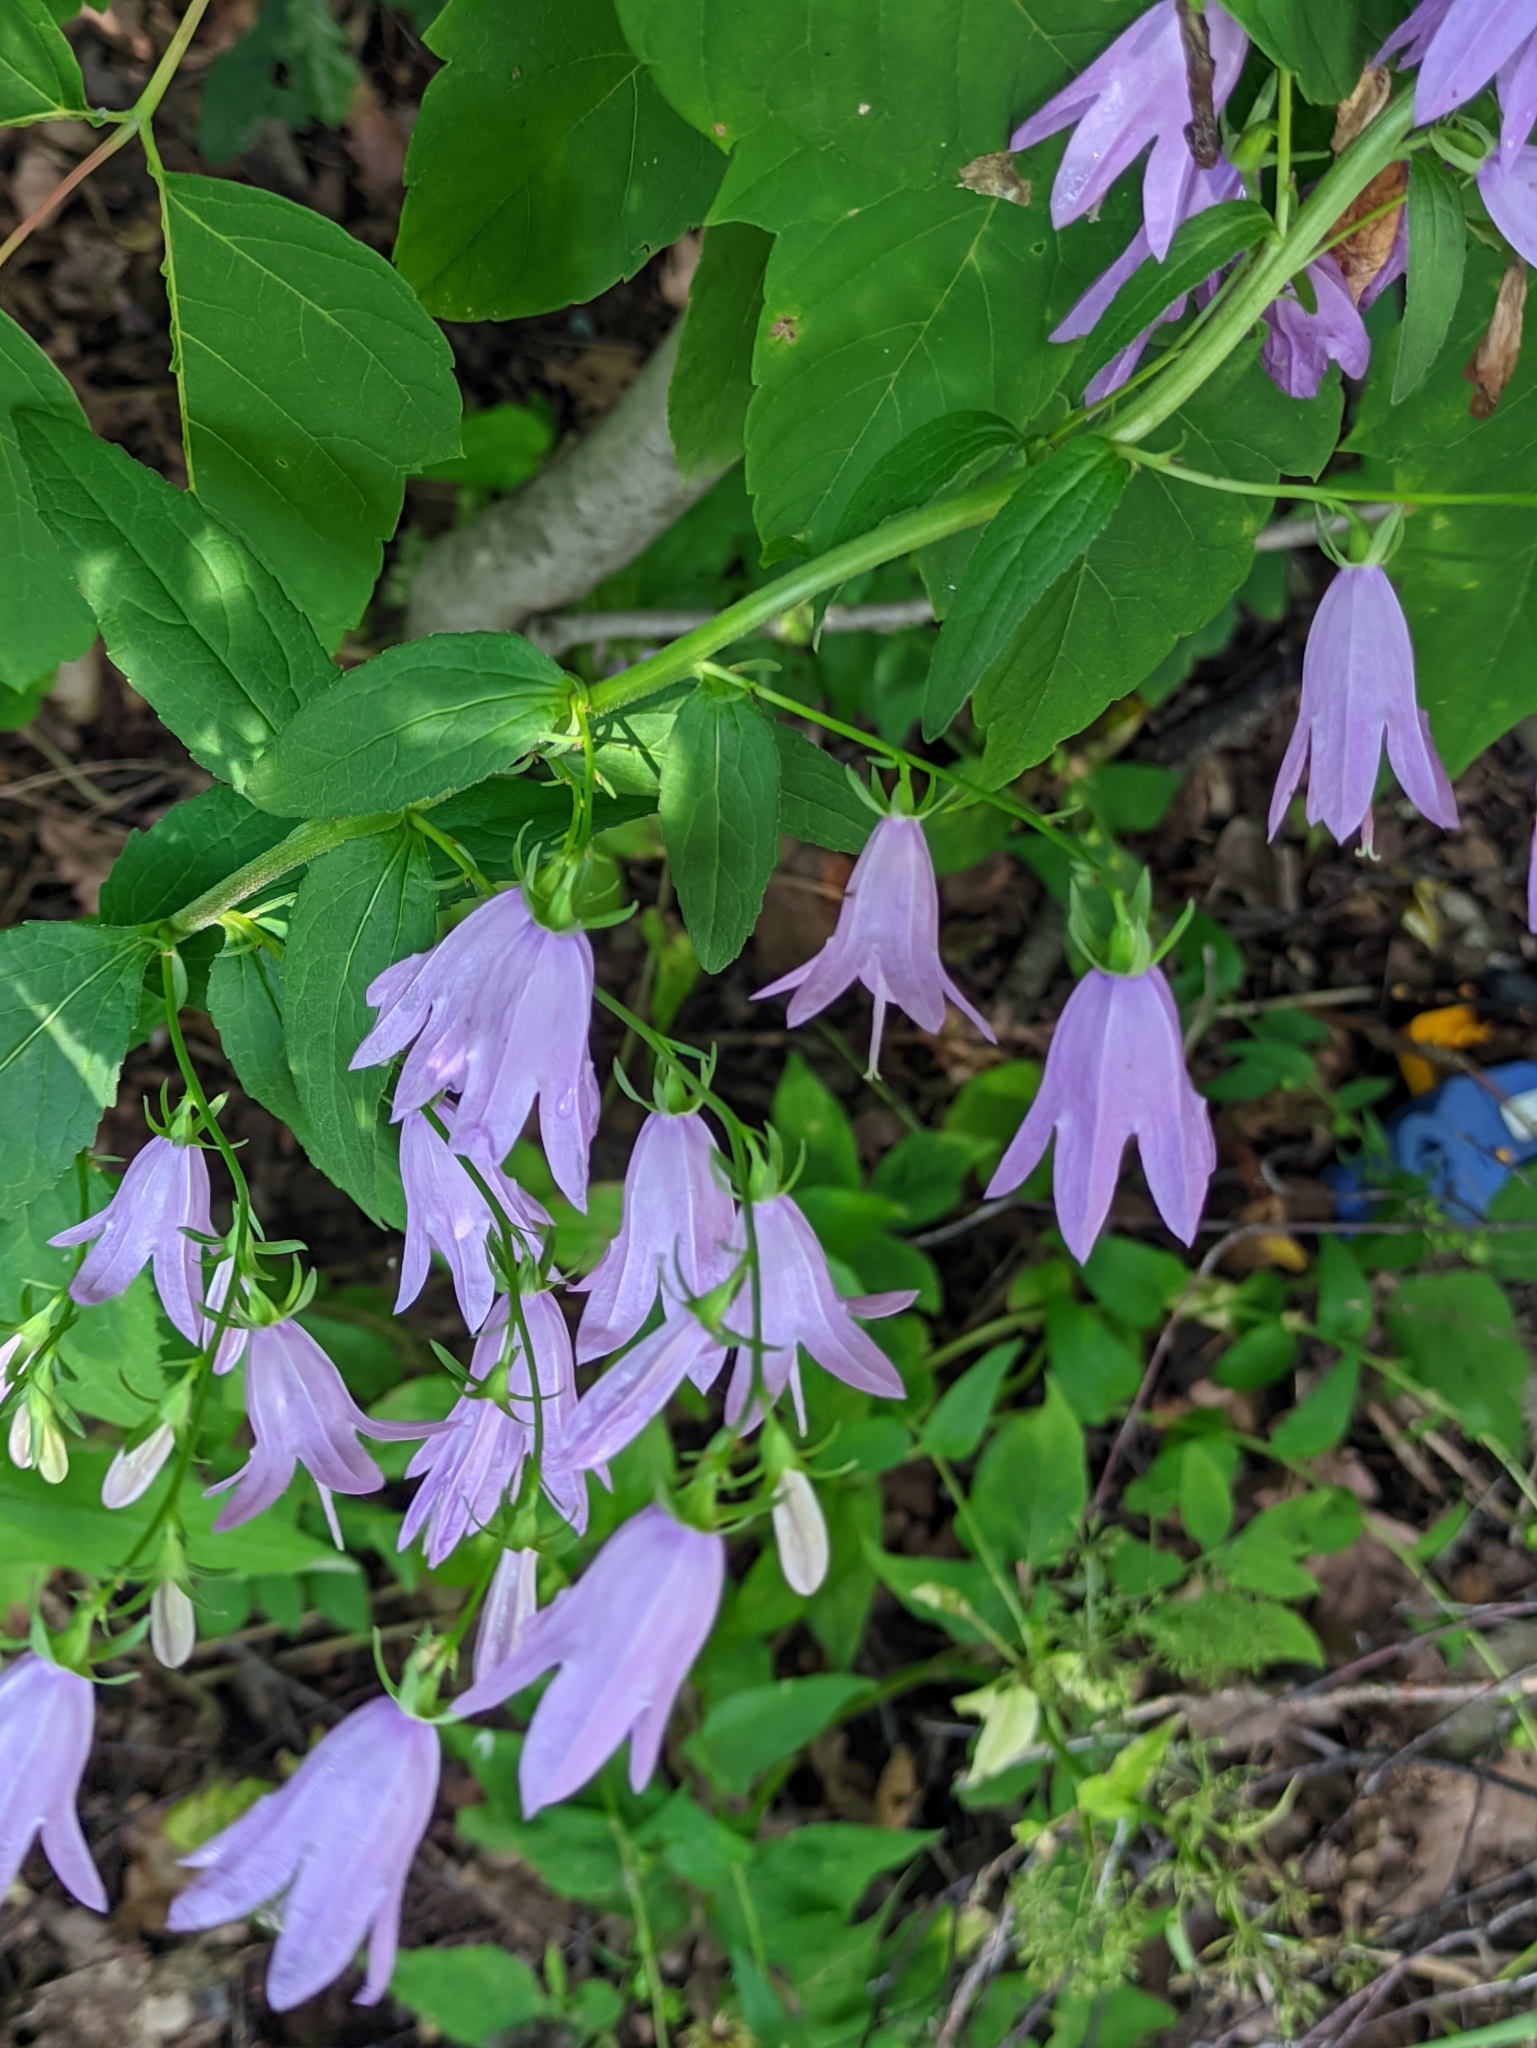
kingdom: Plantae
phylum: Tracheophyta
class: Magnoliopsida
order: Asterales
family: Campanulaceae
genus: Campanula
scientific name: Campanula rapunculoides
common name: Creeping bellflower
